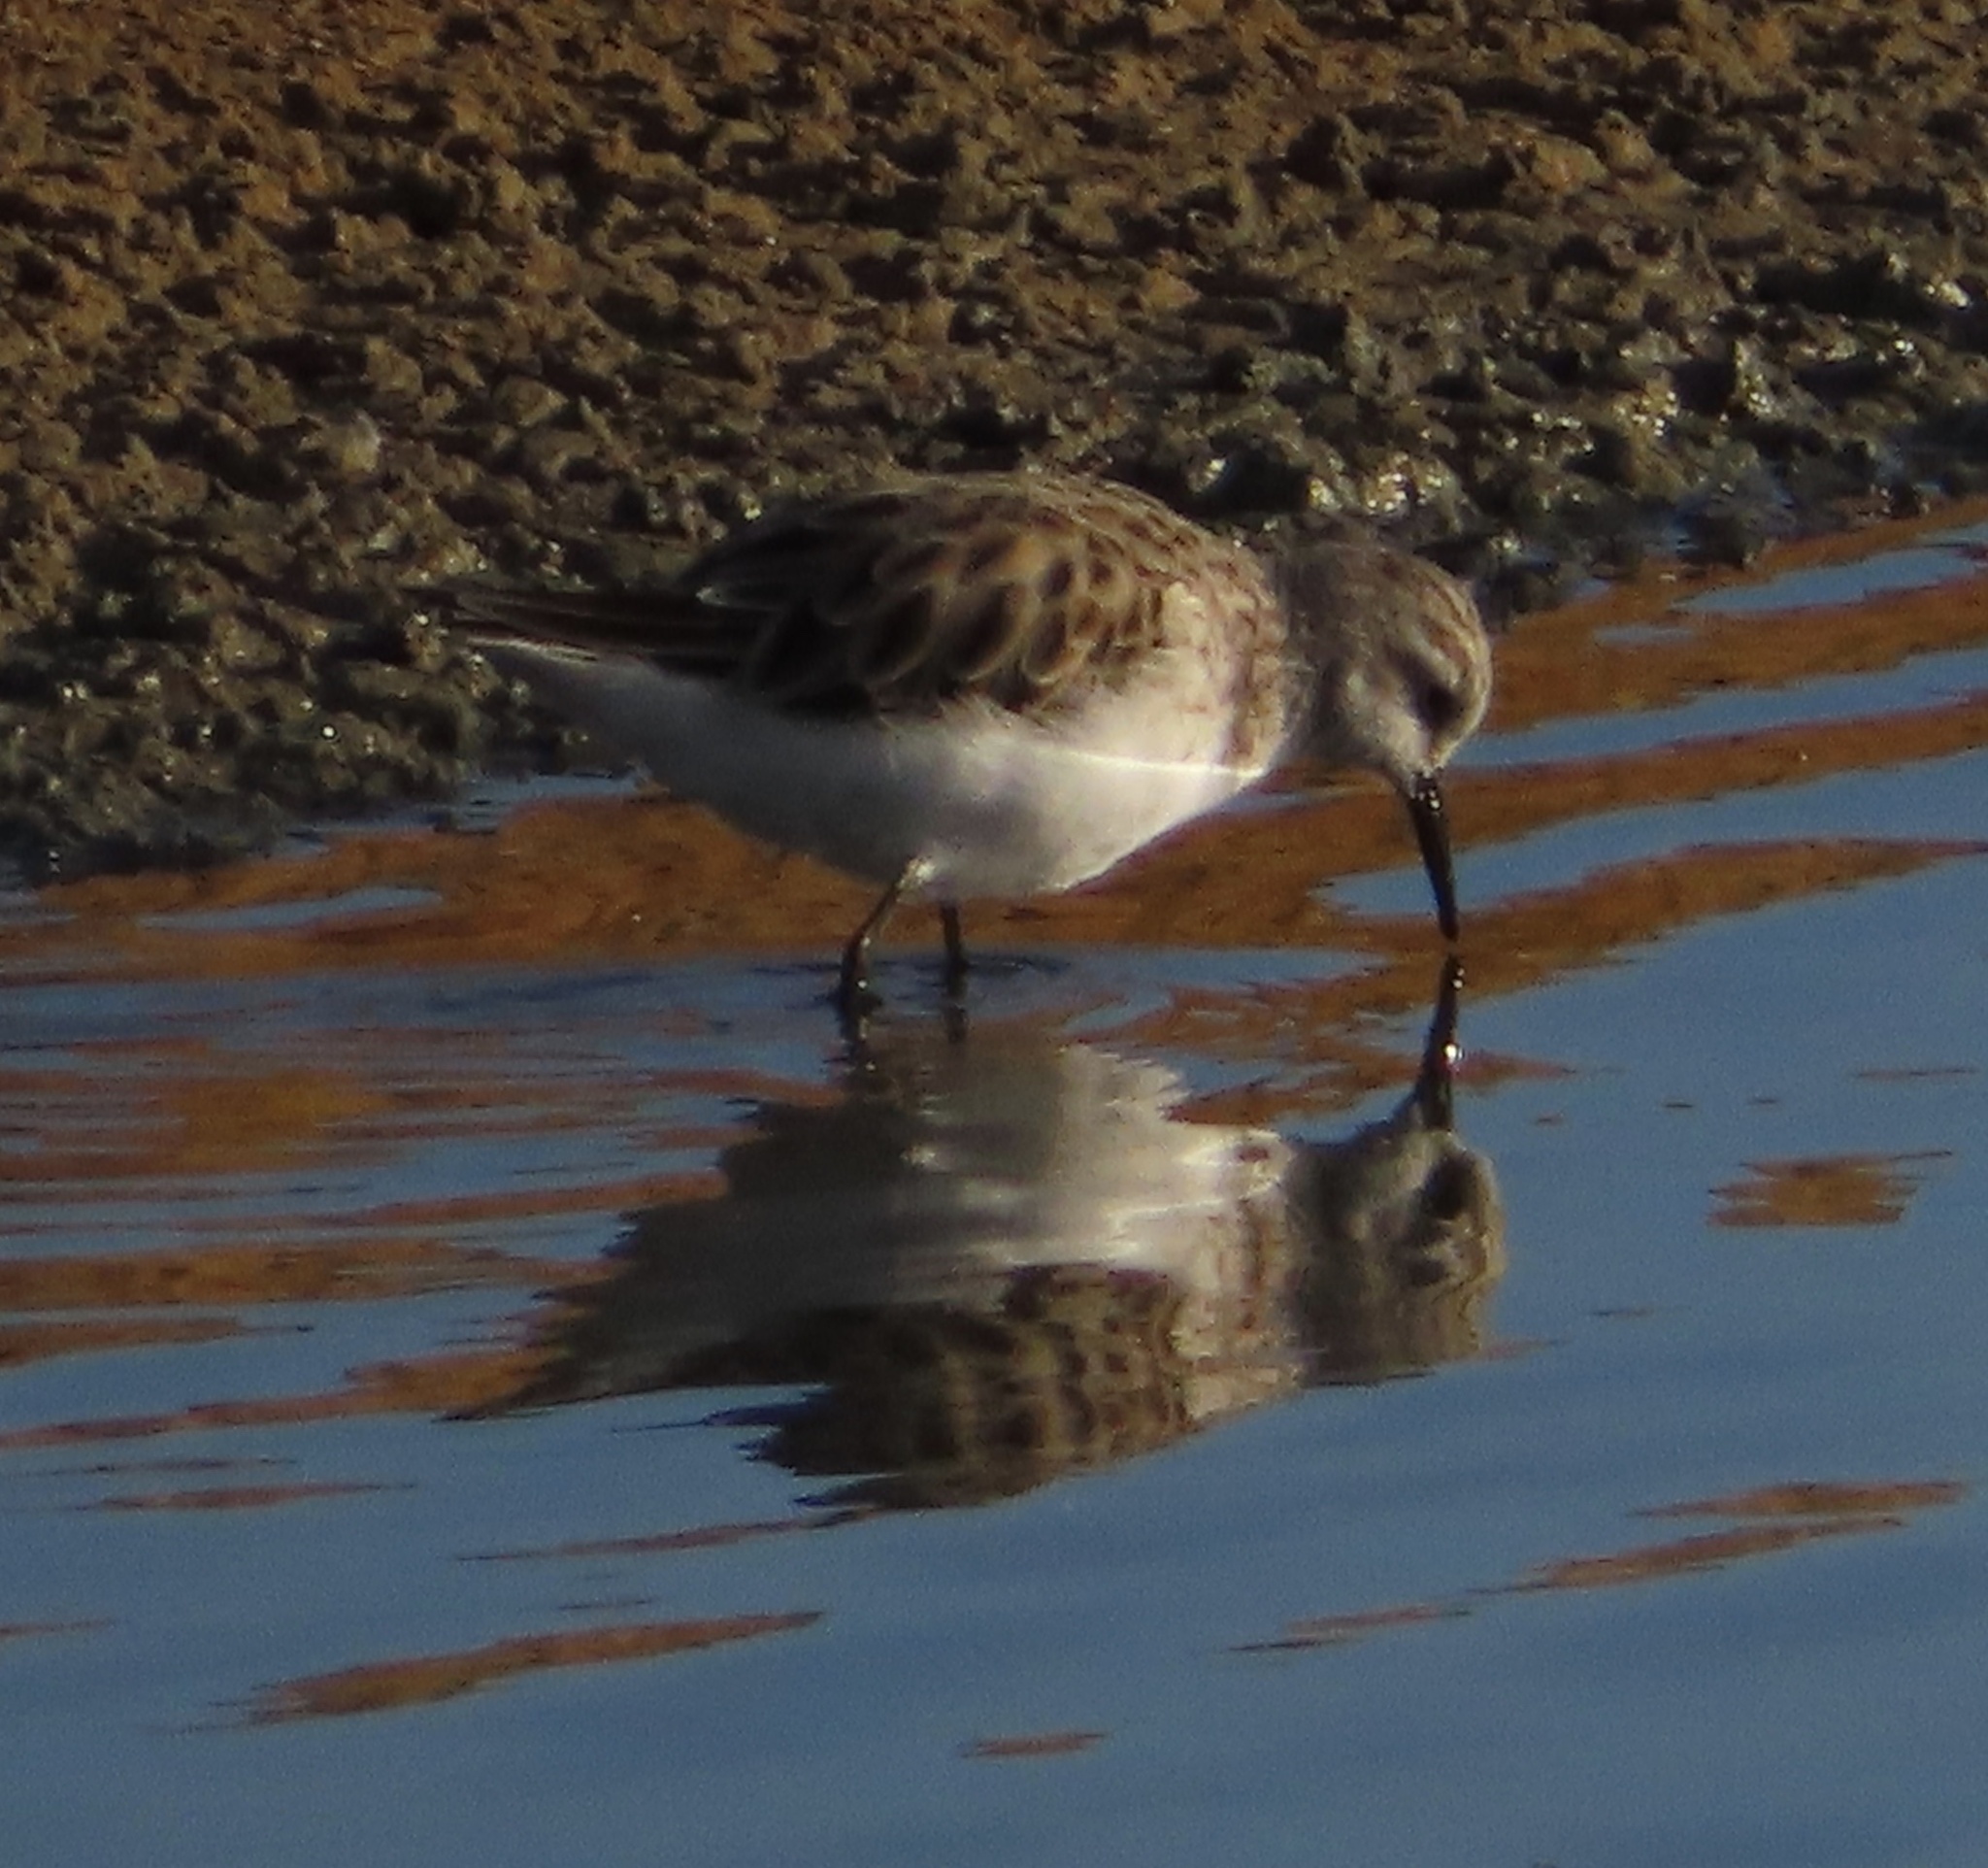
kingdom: Animalia
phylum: Chordata
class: Aves
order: Charadriiformes
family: Scolopacidae
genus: Calidris
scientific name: Calidris minuta
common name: Little stint
